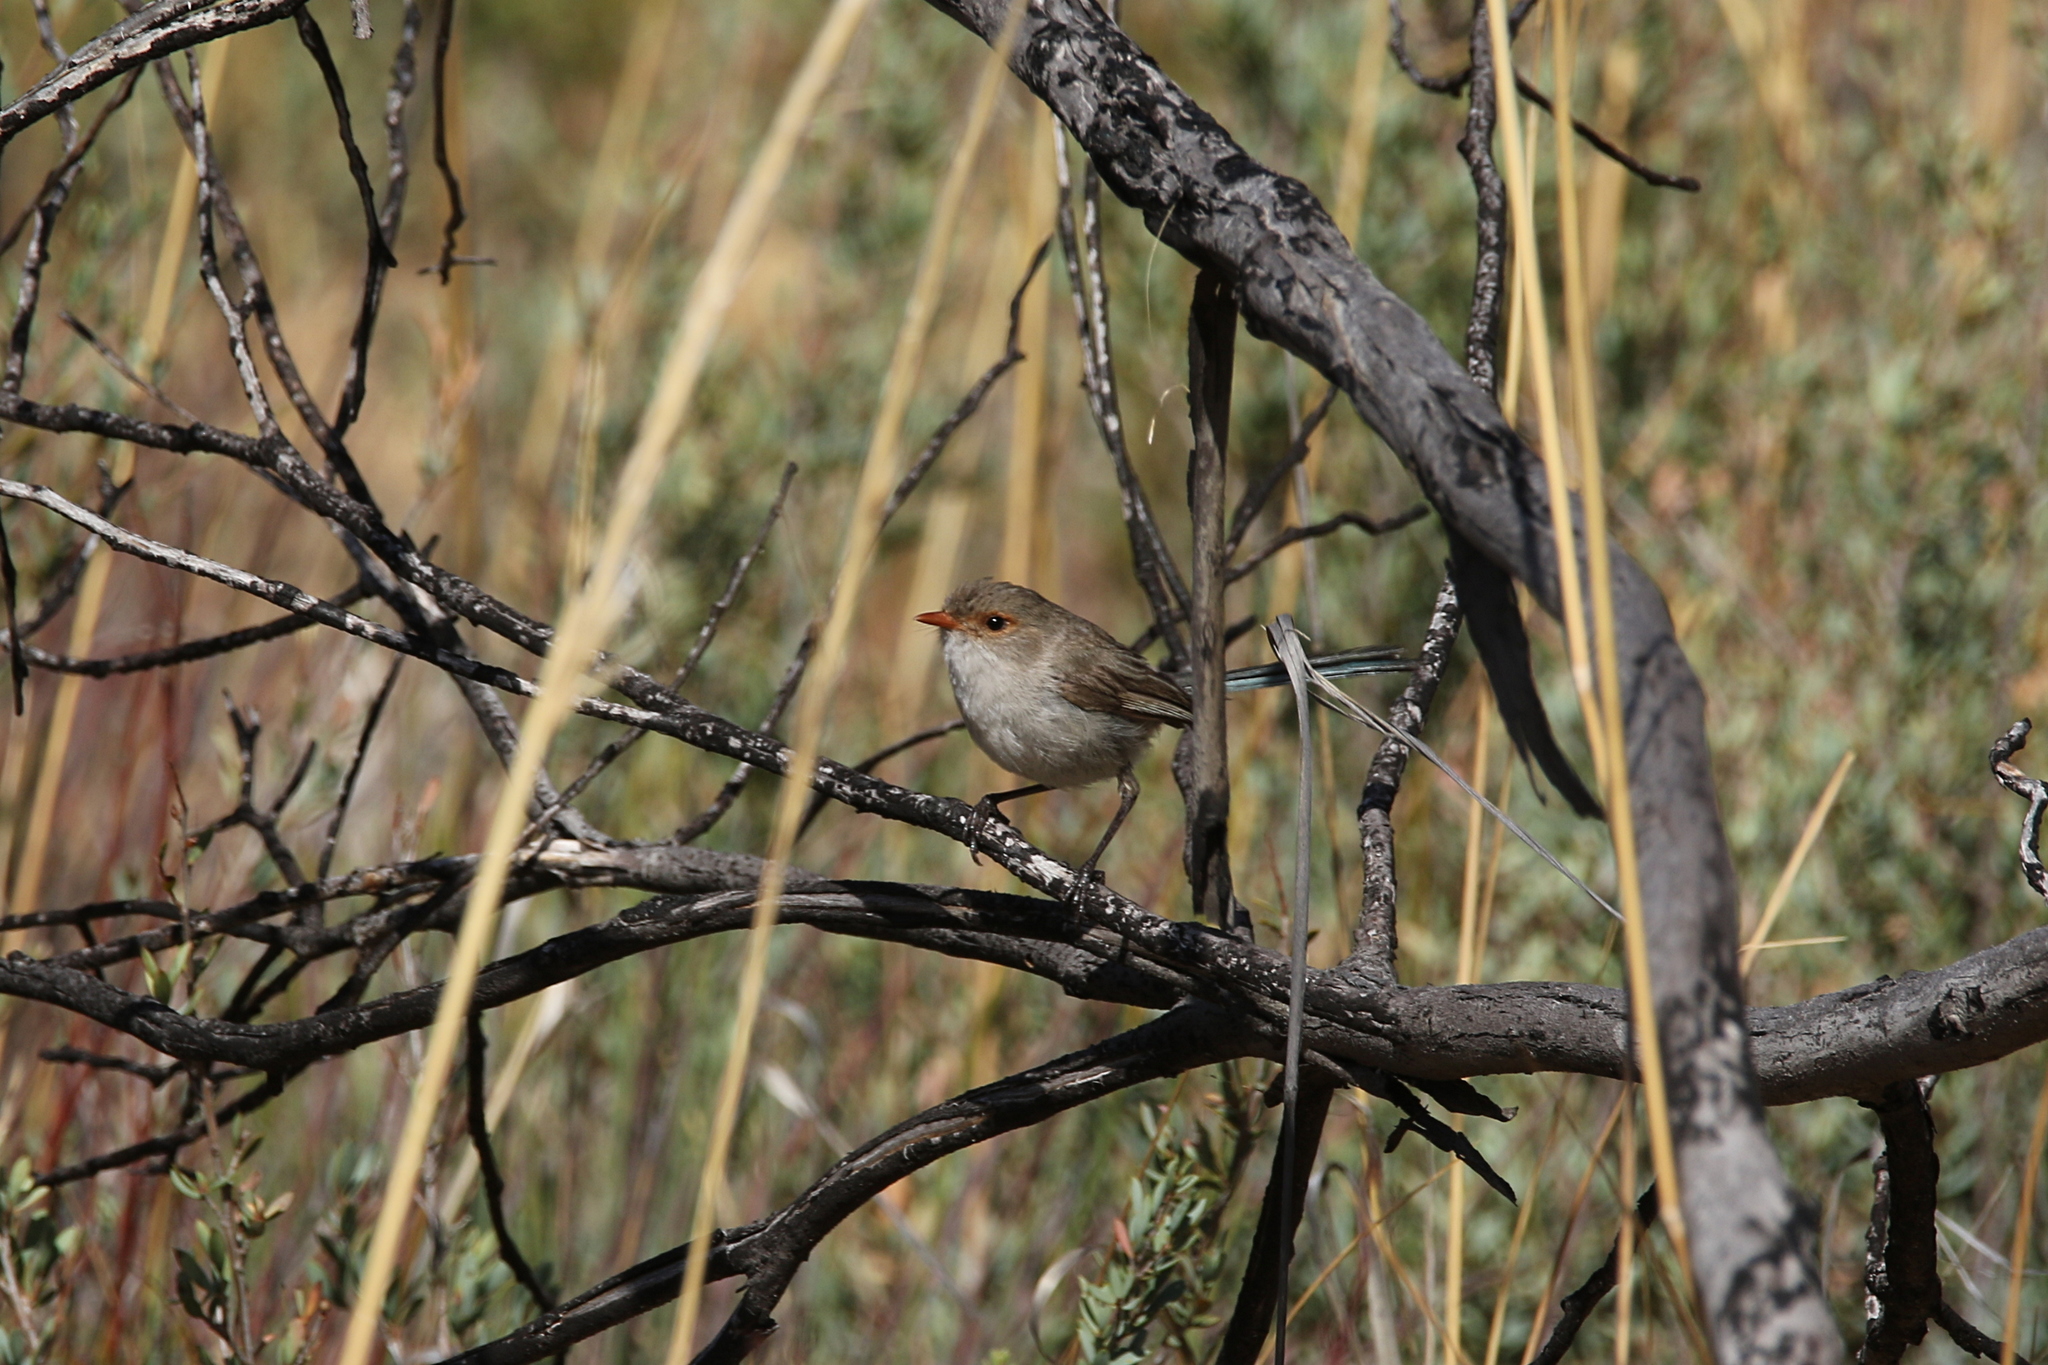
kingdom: Animalia
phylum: Chordata
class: Aves
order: Passeriformes
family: Maluridae
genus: Malurus
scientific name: Malurus splendens
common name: Splendid fairywren
